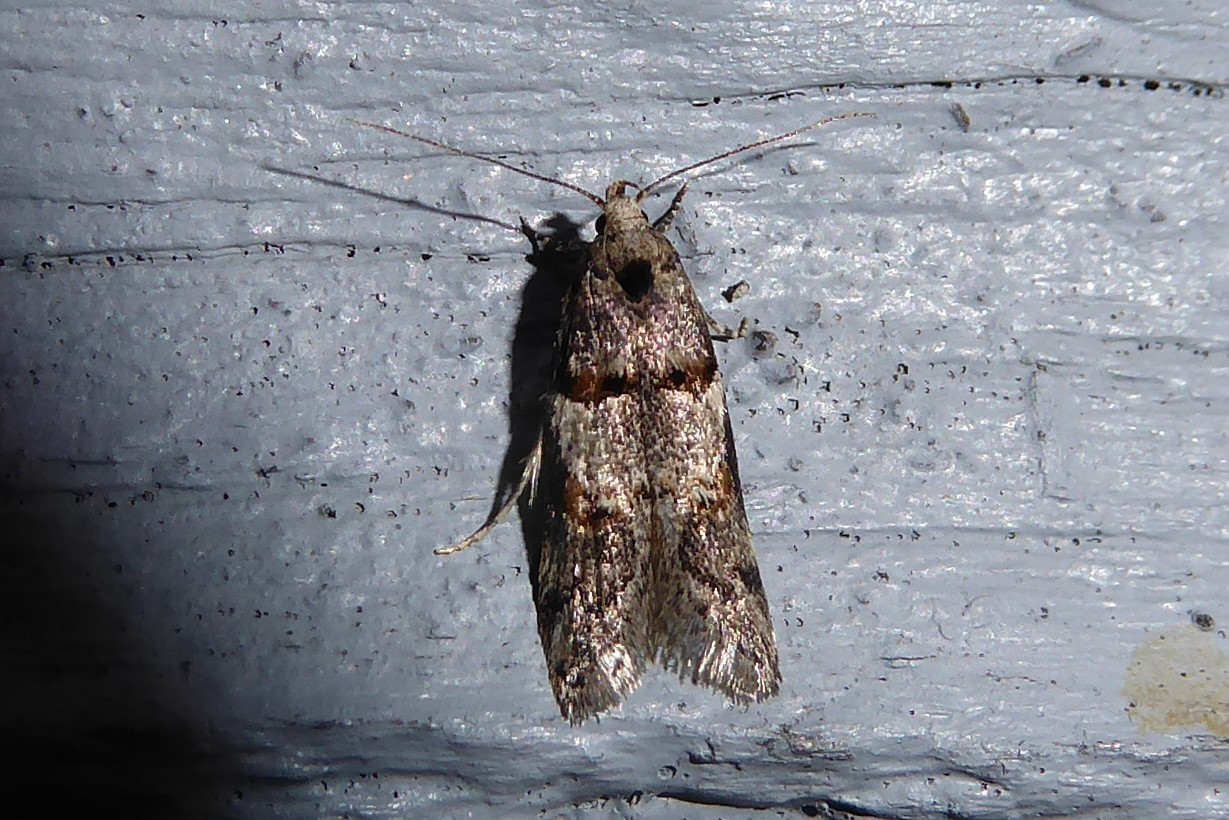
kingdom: Animalia
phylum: Arthropoda
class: Insecta
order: Lepidoptera
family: Oecophoridae
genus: Trachypepla
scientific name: Trachypepla contritella
